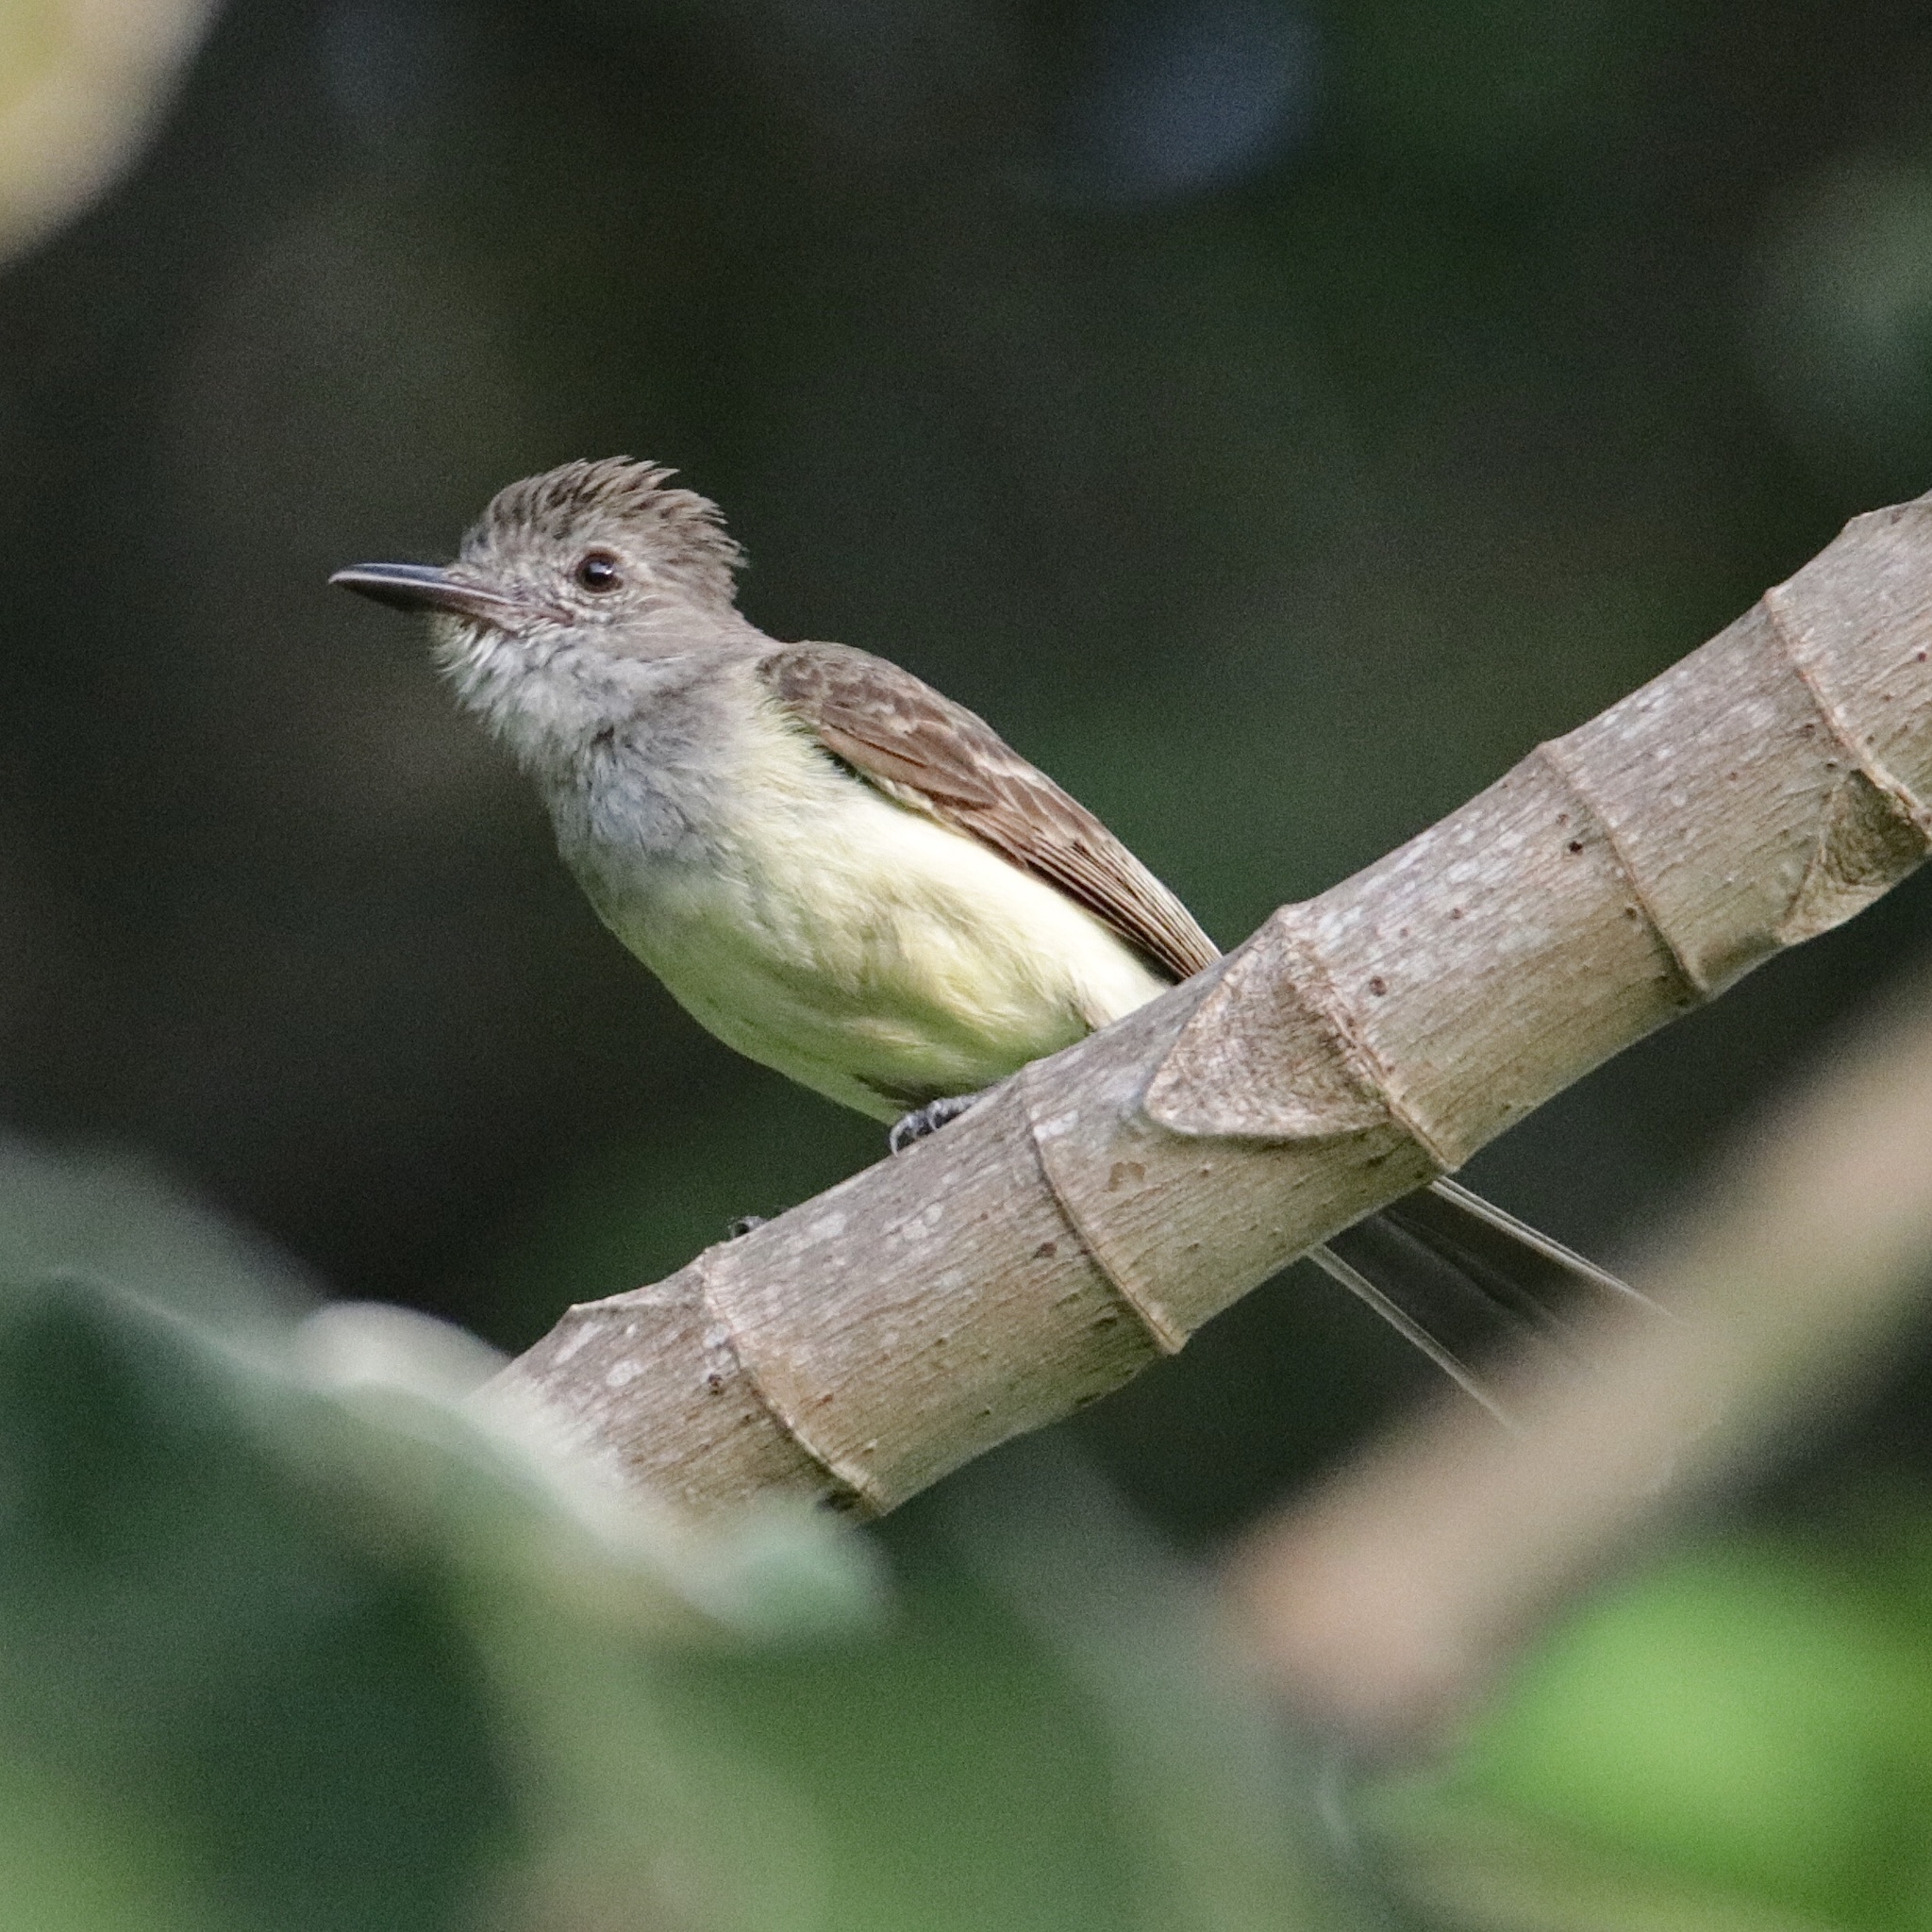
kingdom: Animalia
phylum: Chordata
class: Aves
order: Passeriformes
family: Tyrannidae
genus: Myiarchus
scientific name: Myiarchus panamensis
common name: Panama flycatcher
